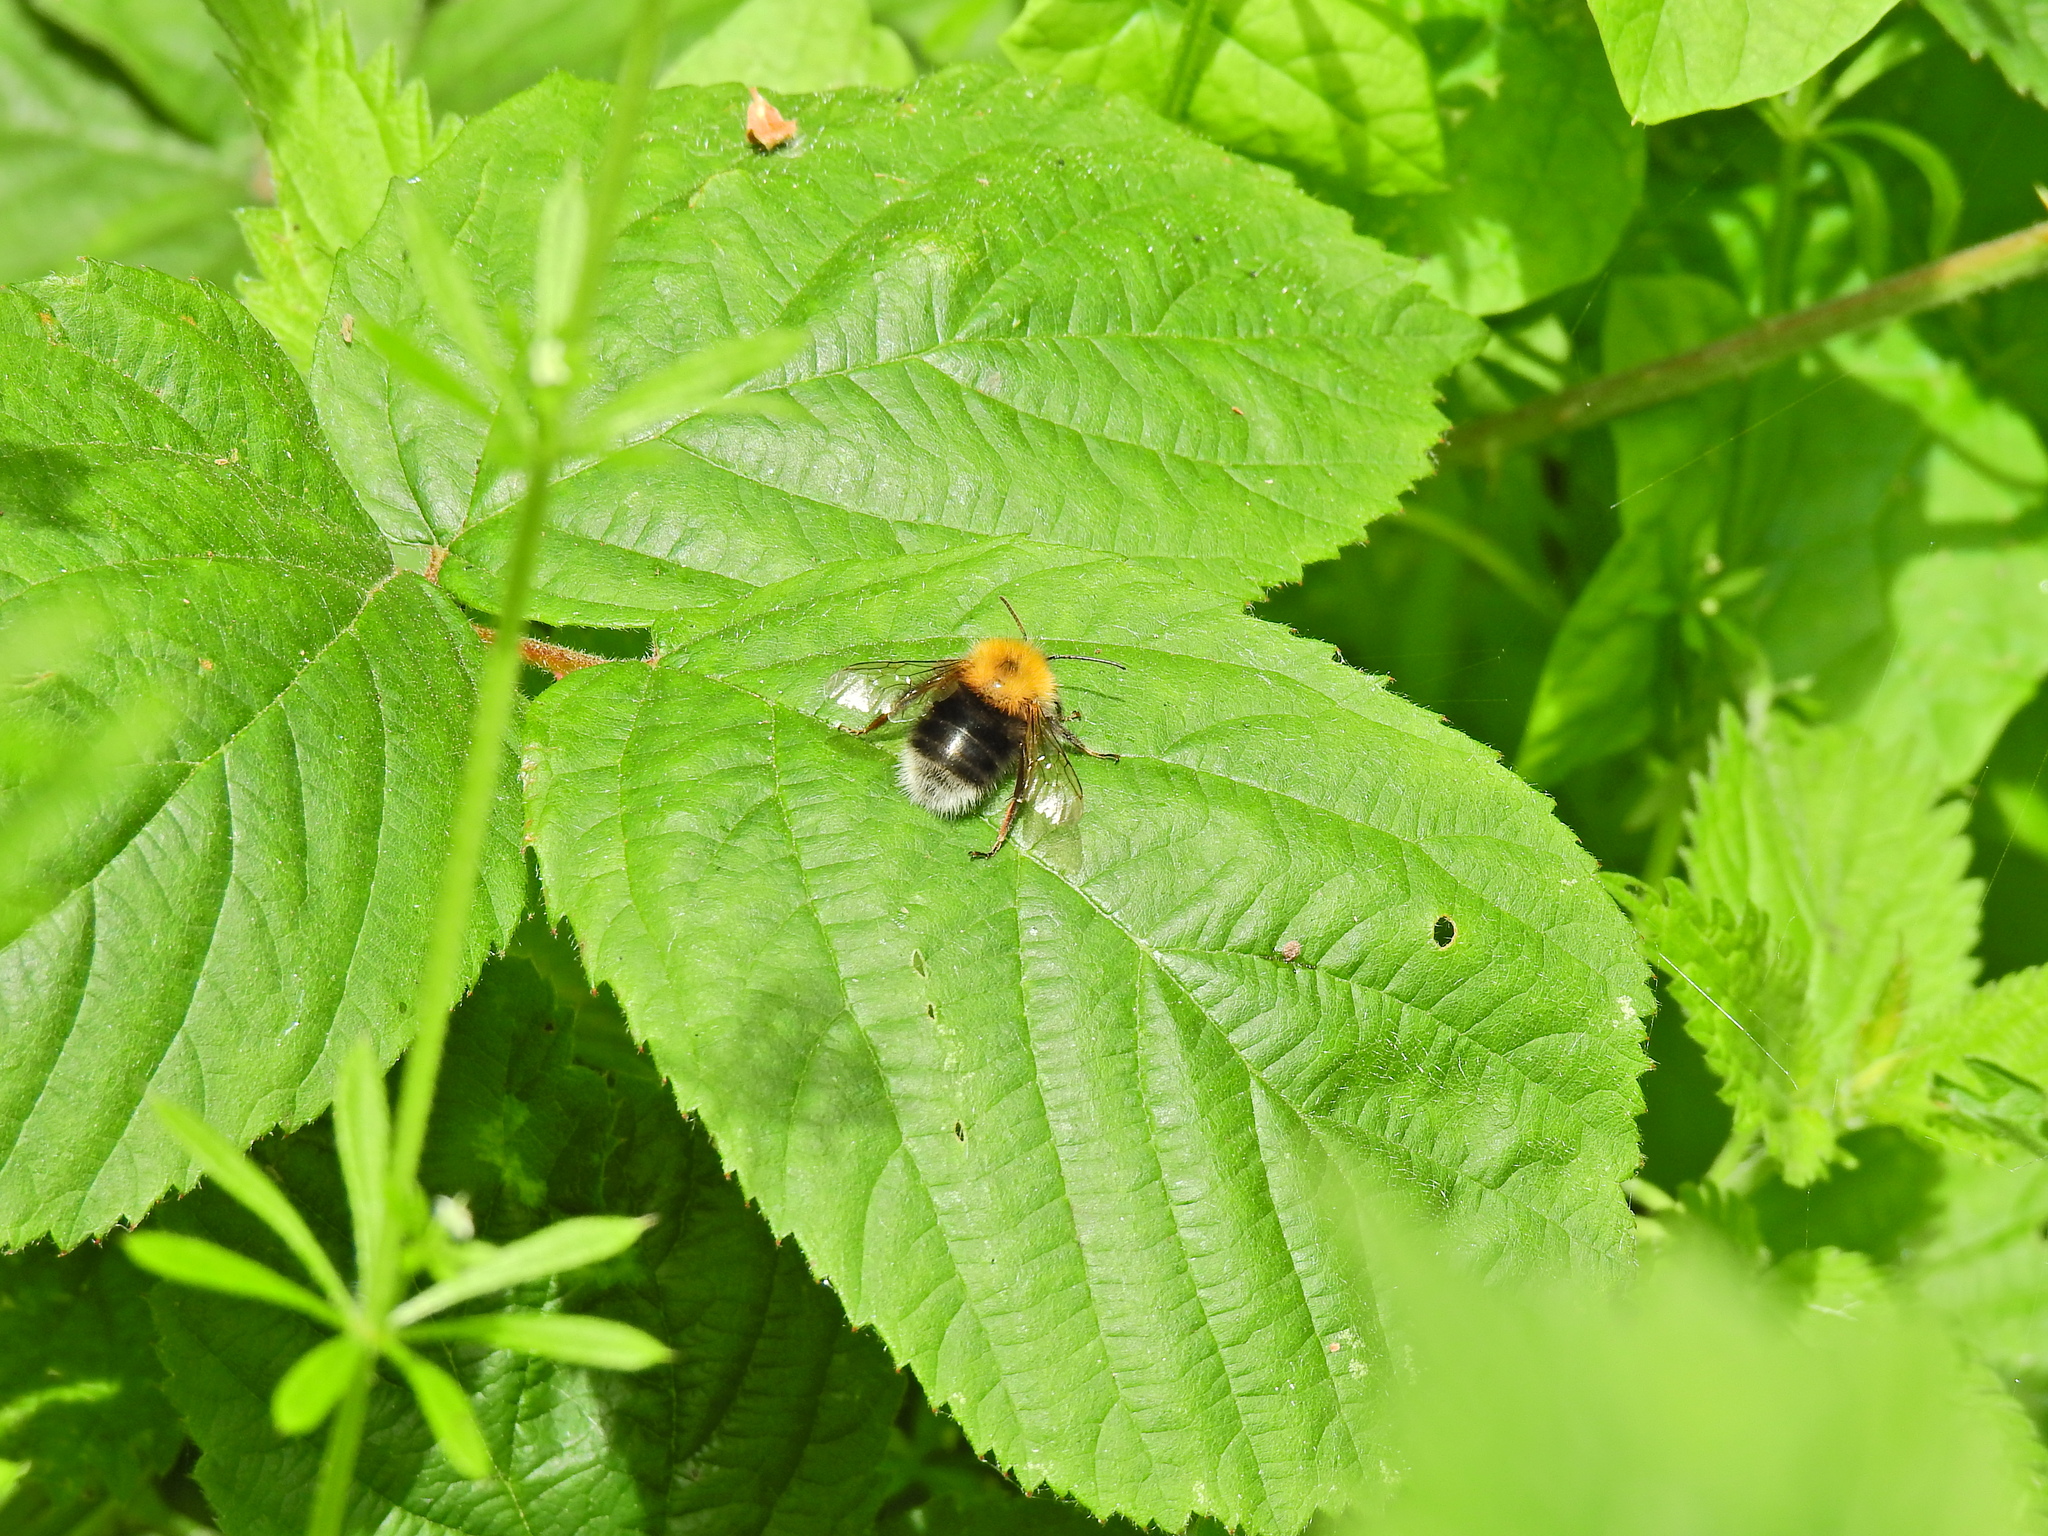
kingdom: Animalia
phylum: Arthropoda
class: Insecta
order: Hymenoptera
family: Apidae
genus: Bombus
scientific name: Bombus hypnorum
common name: New garden bumblebee
